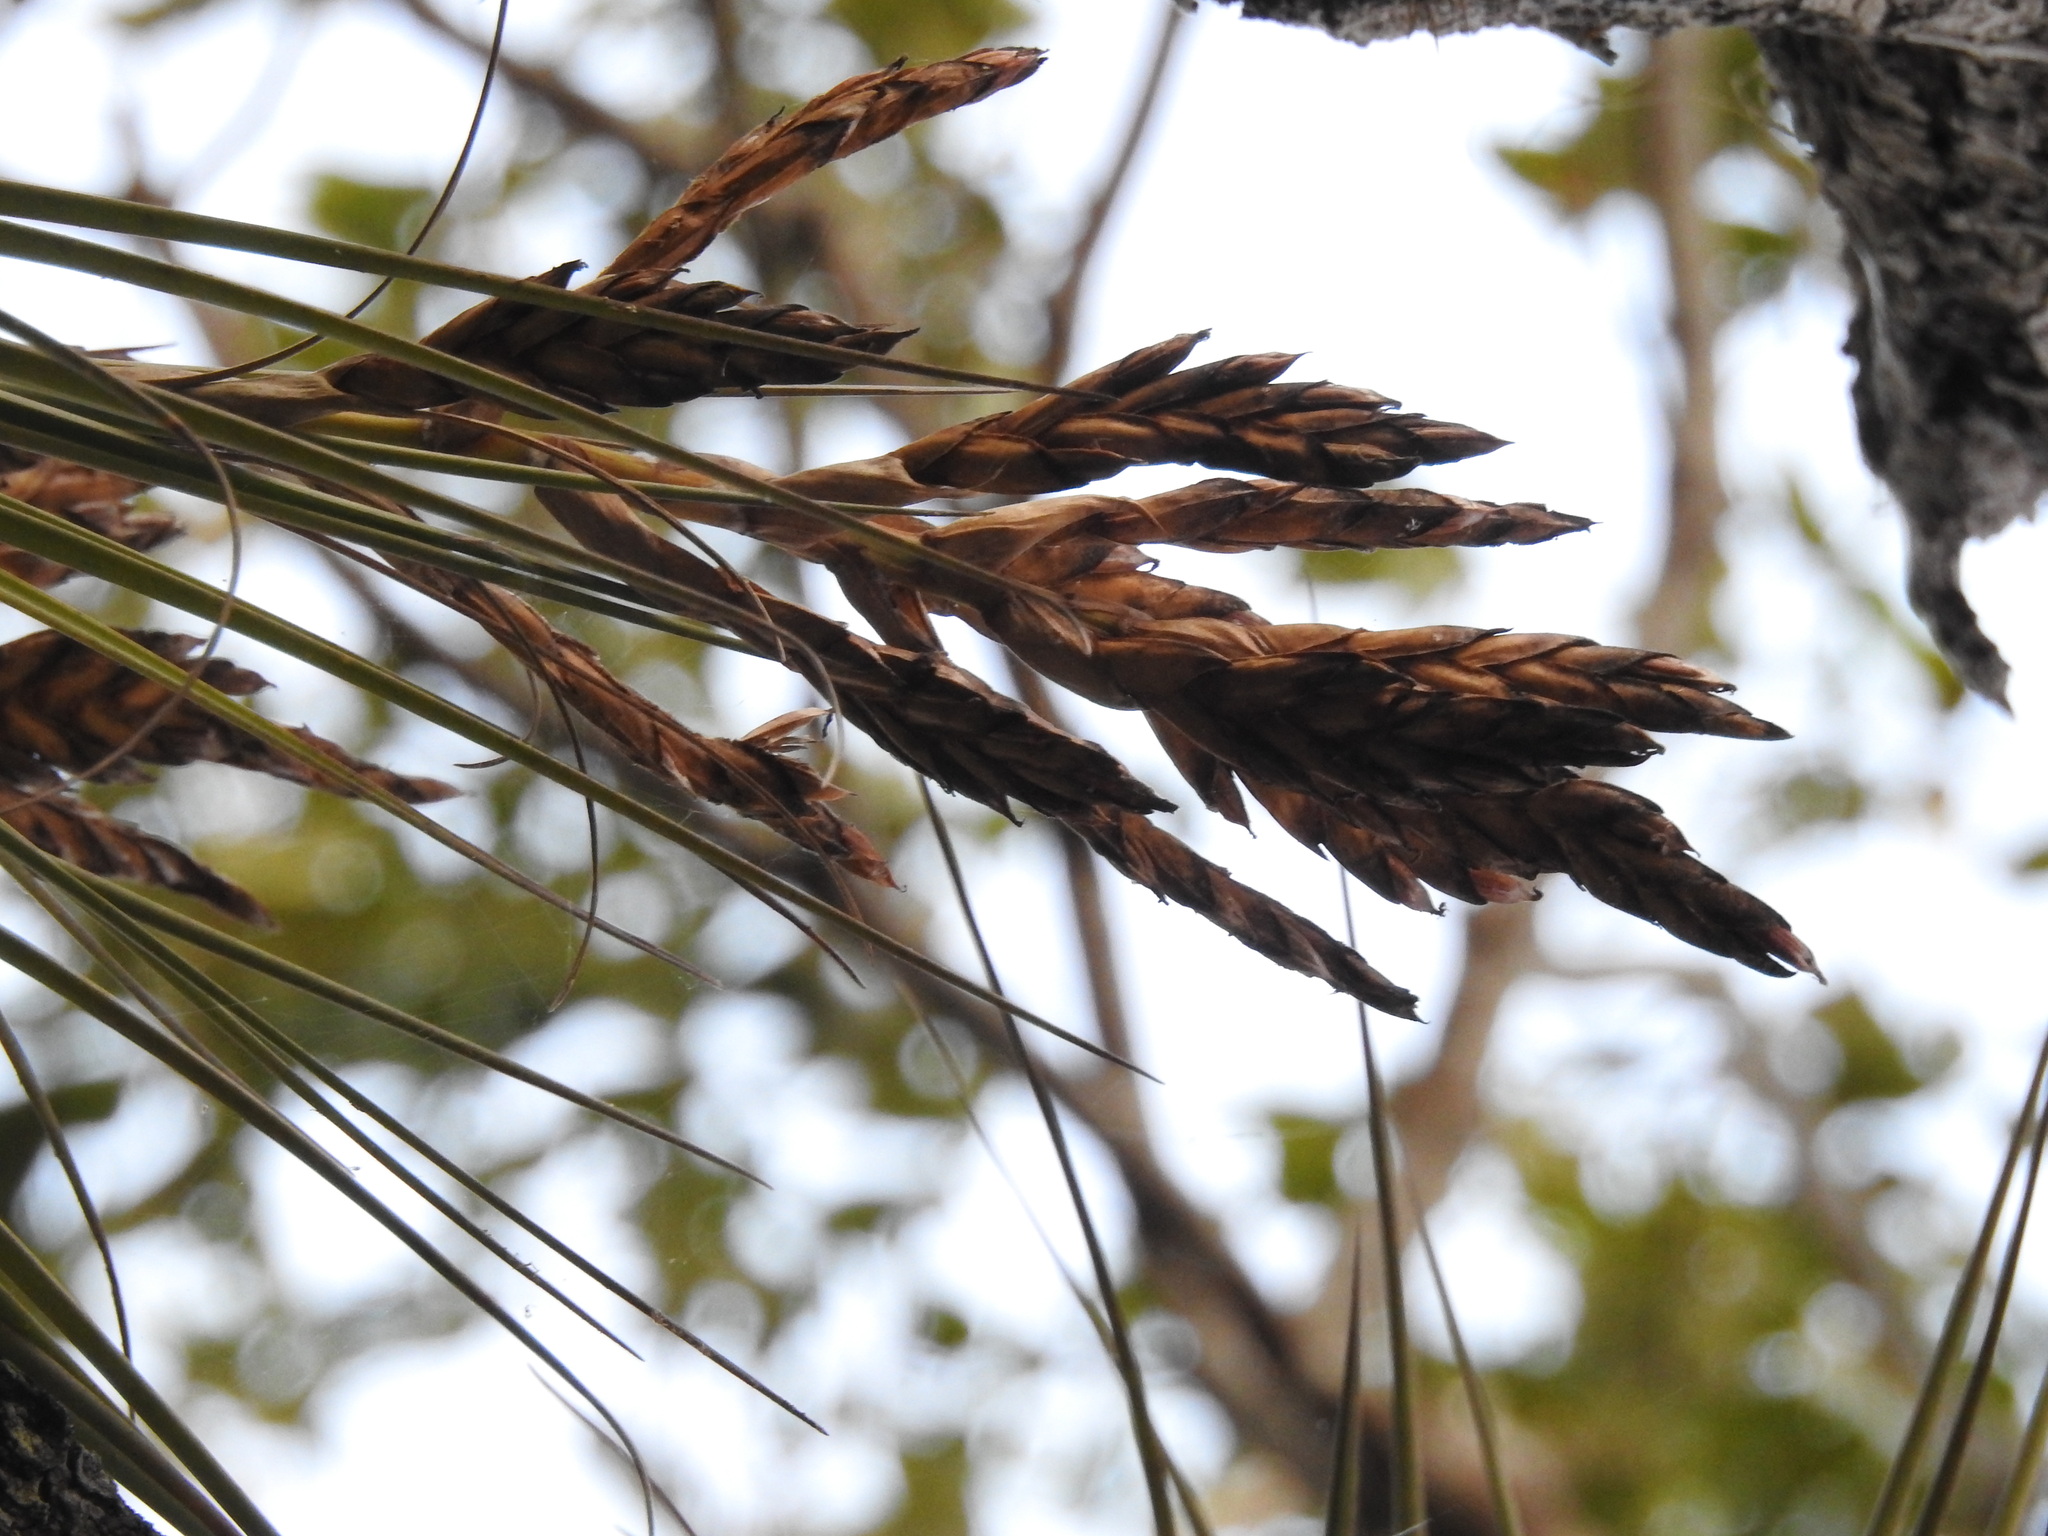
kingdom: Plantae
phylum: Tracheophyta
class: Liliopsida
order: Poales
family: Bromeliaceae
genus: Tillandsia
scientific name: Tillandsia fasciculata
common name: Giant airplant
